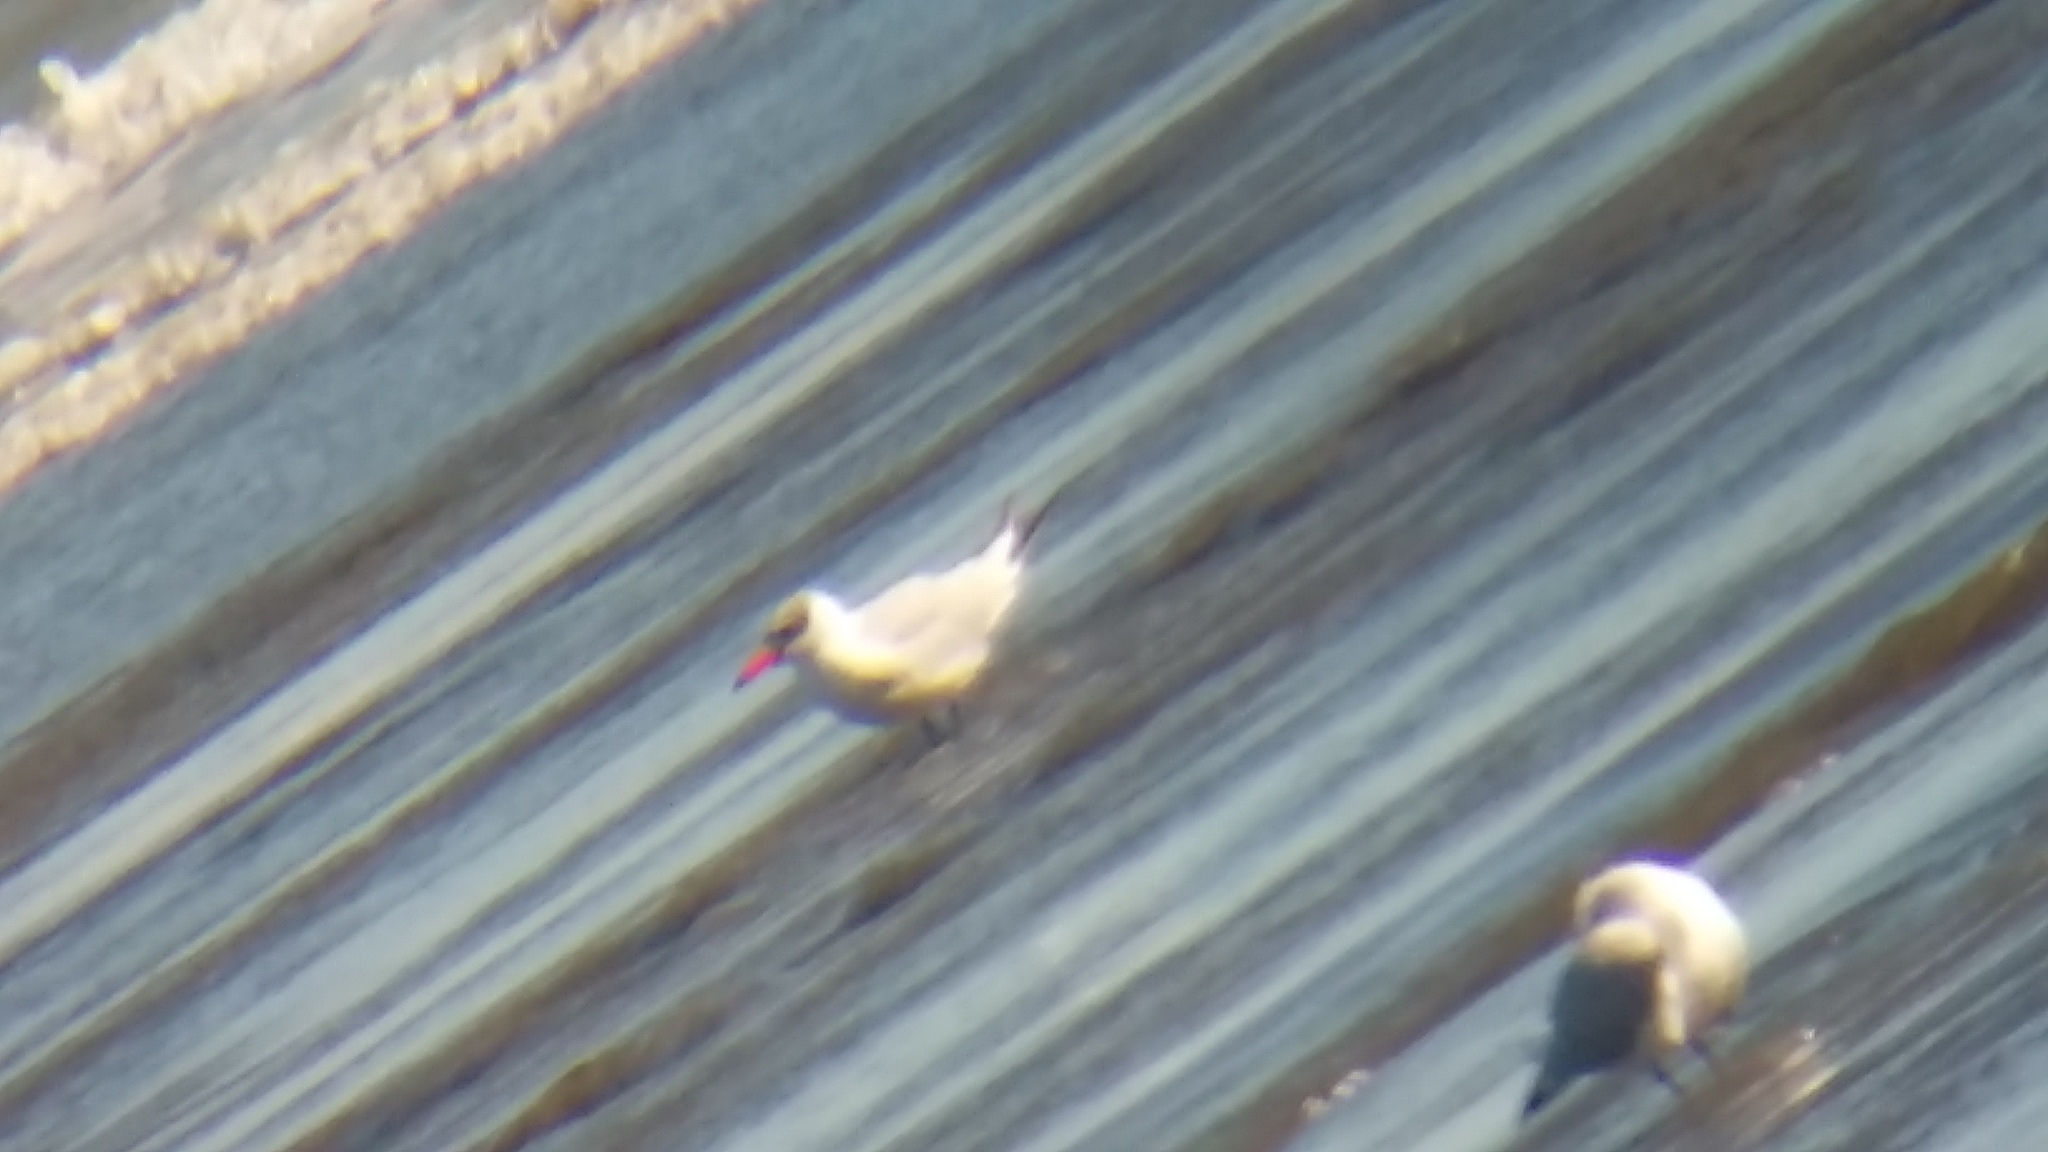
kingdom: Animalia
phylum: Chordata
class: Aves
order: Charadriiformes
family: Laridae
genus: Hydroprogne
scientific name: Hydroprogne caspia
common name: Caspian tern
